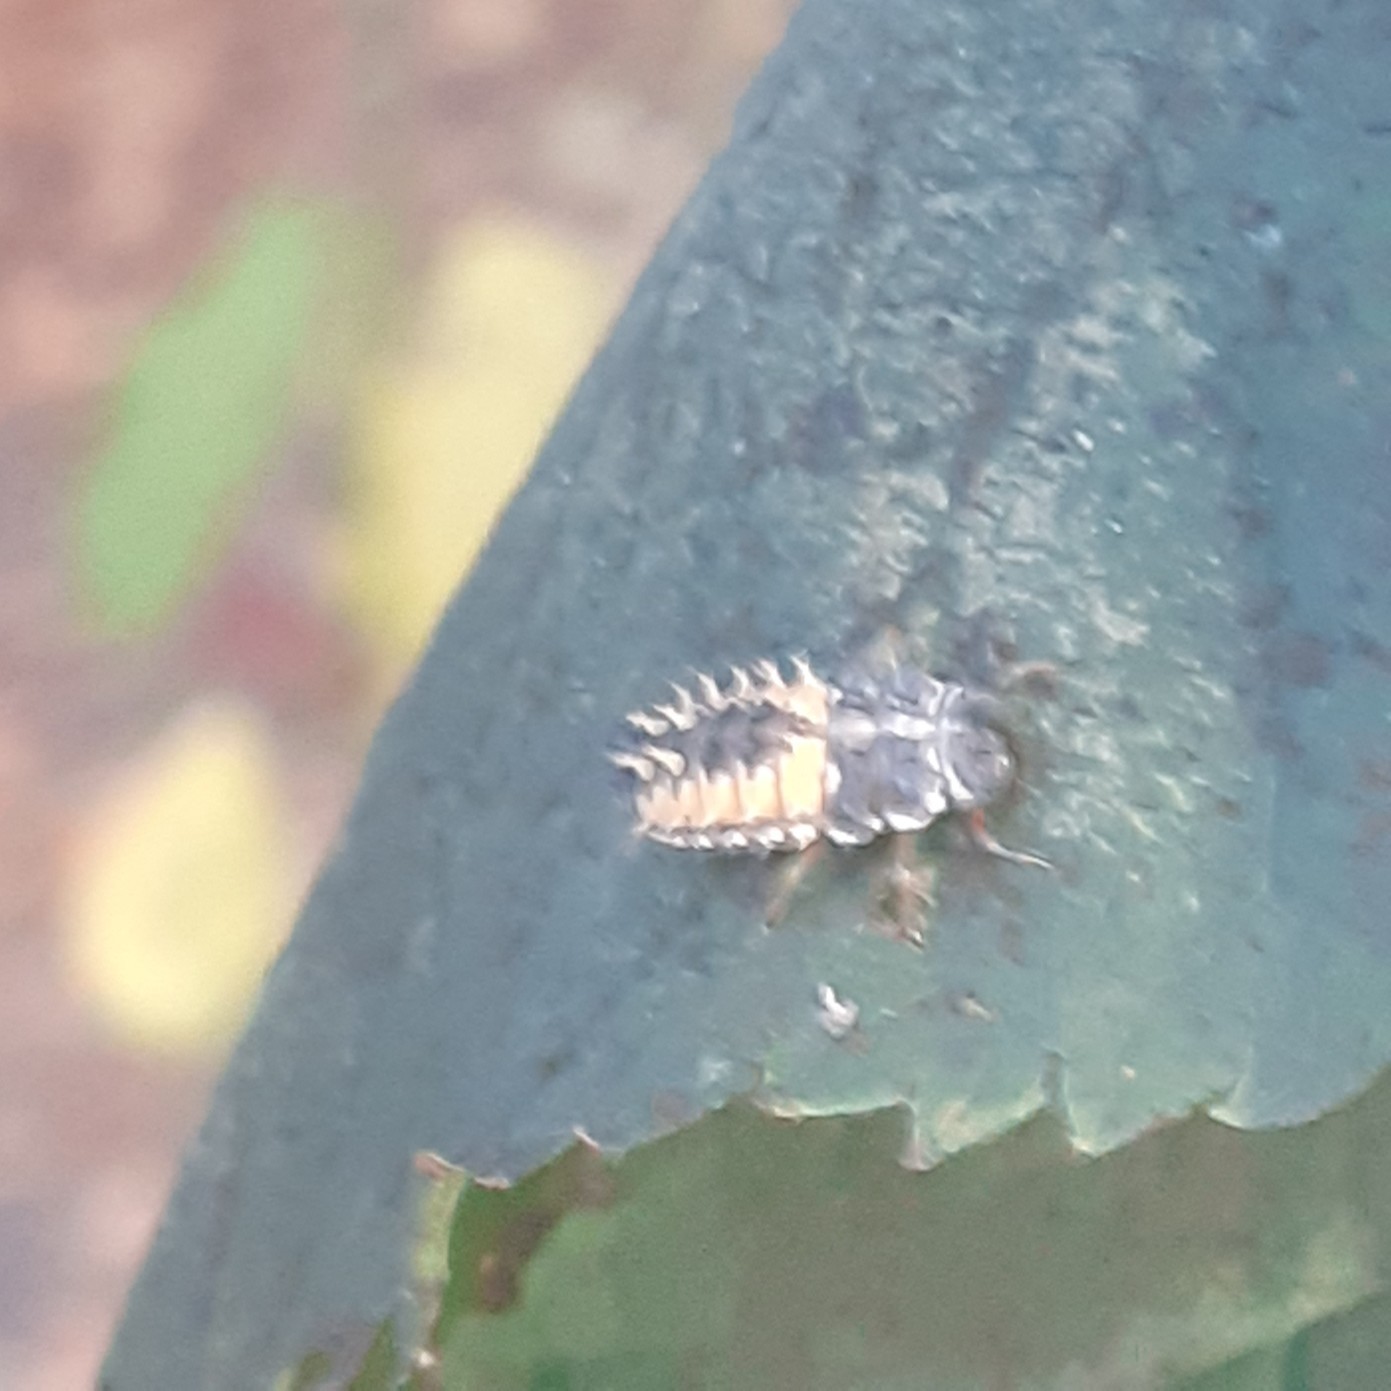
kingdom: Animalia
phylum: Arthropoda
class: Insecta
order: Coleoptera
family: Coccinellidae
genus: Harmonia
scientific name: Harmonia axyridis
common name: Harlequin ladybird
